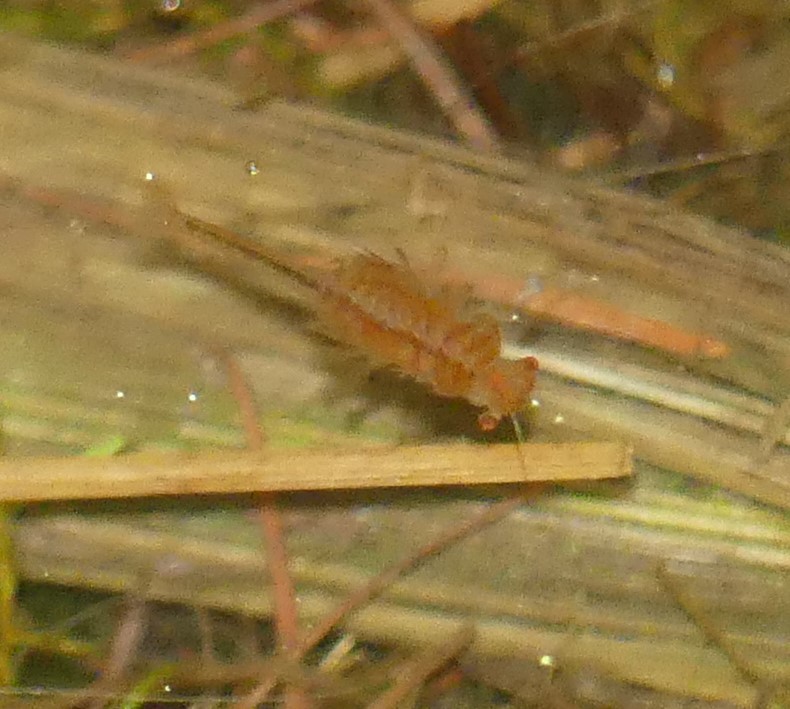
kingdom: Animalia
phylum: Arthropoda
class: Branchiopoda
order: Anostraca
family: Chirocephalidae
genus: Eubranchipus
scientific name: Eubranchipus grubii
